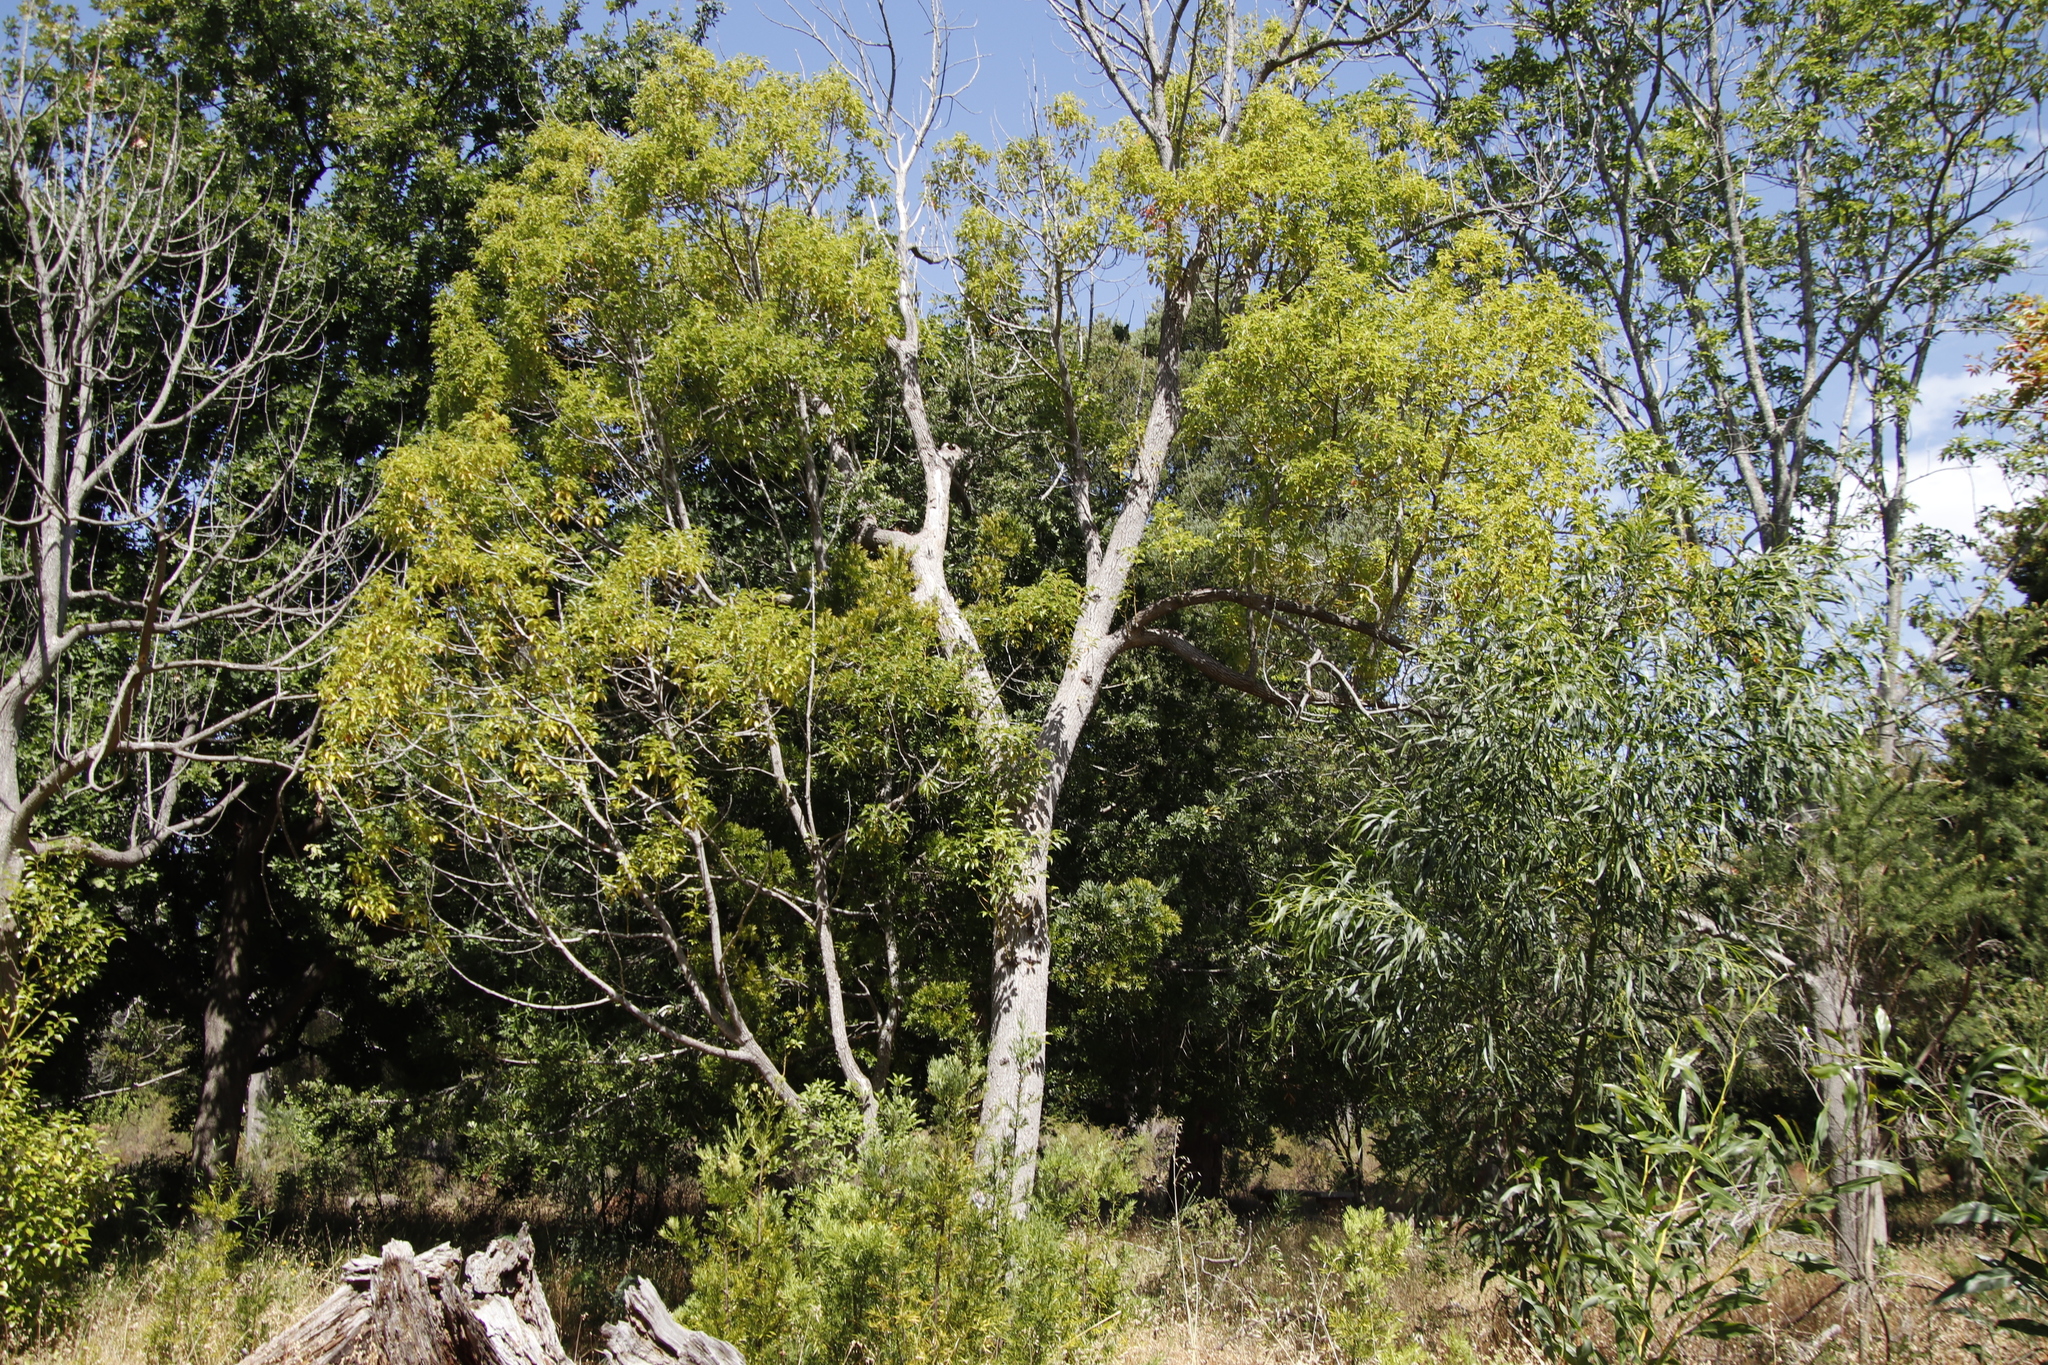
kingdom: Plantae
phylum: Tracheophyta
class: Magnoliopsida
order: Laurales
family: Lauraceae
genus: Cinnamomum
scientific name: Cinnamomum camphora
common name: Camphortree
